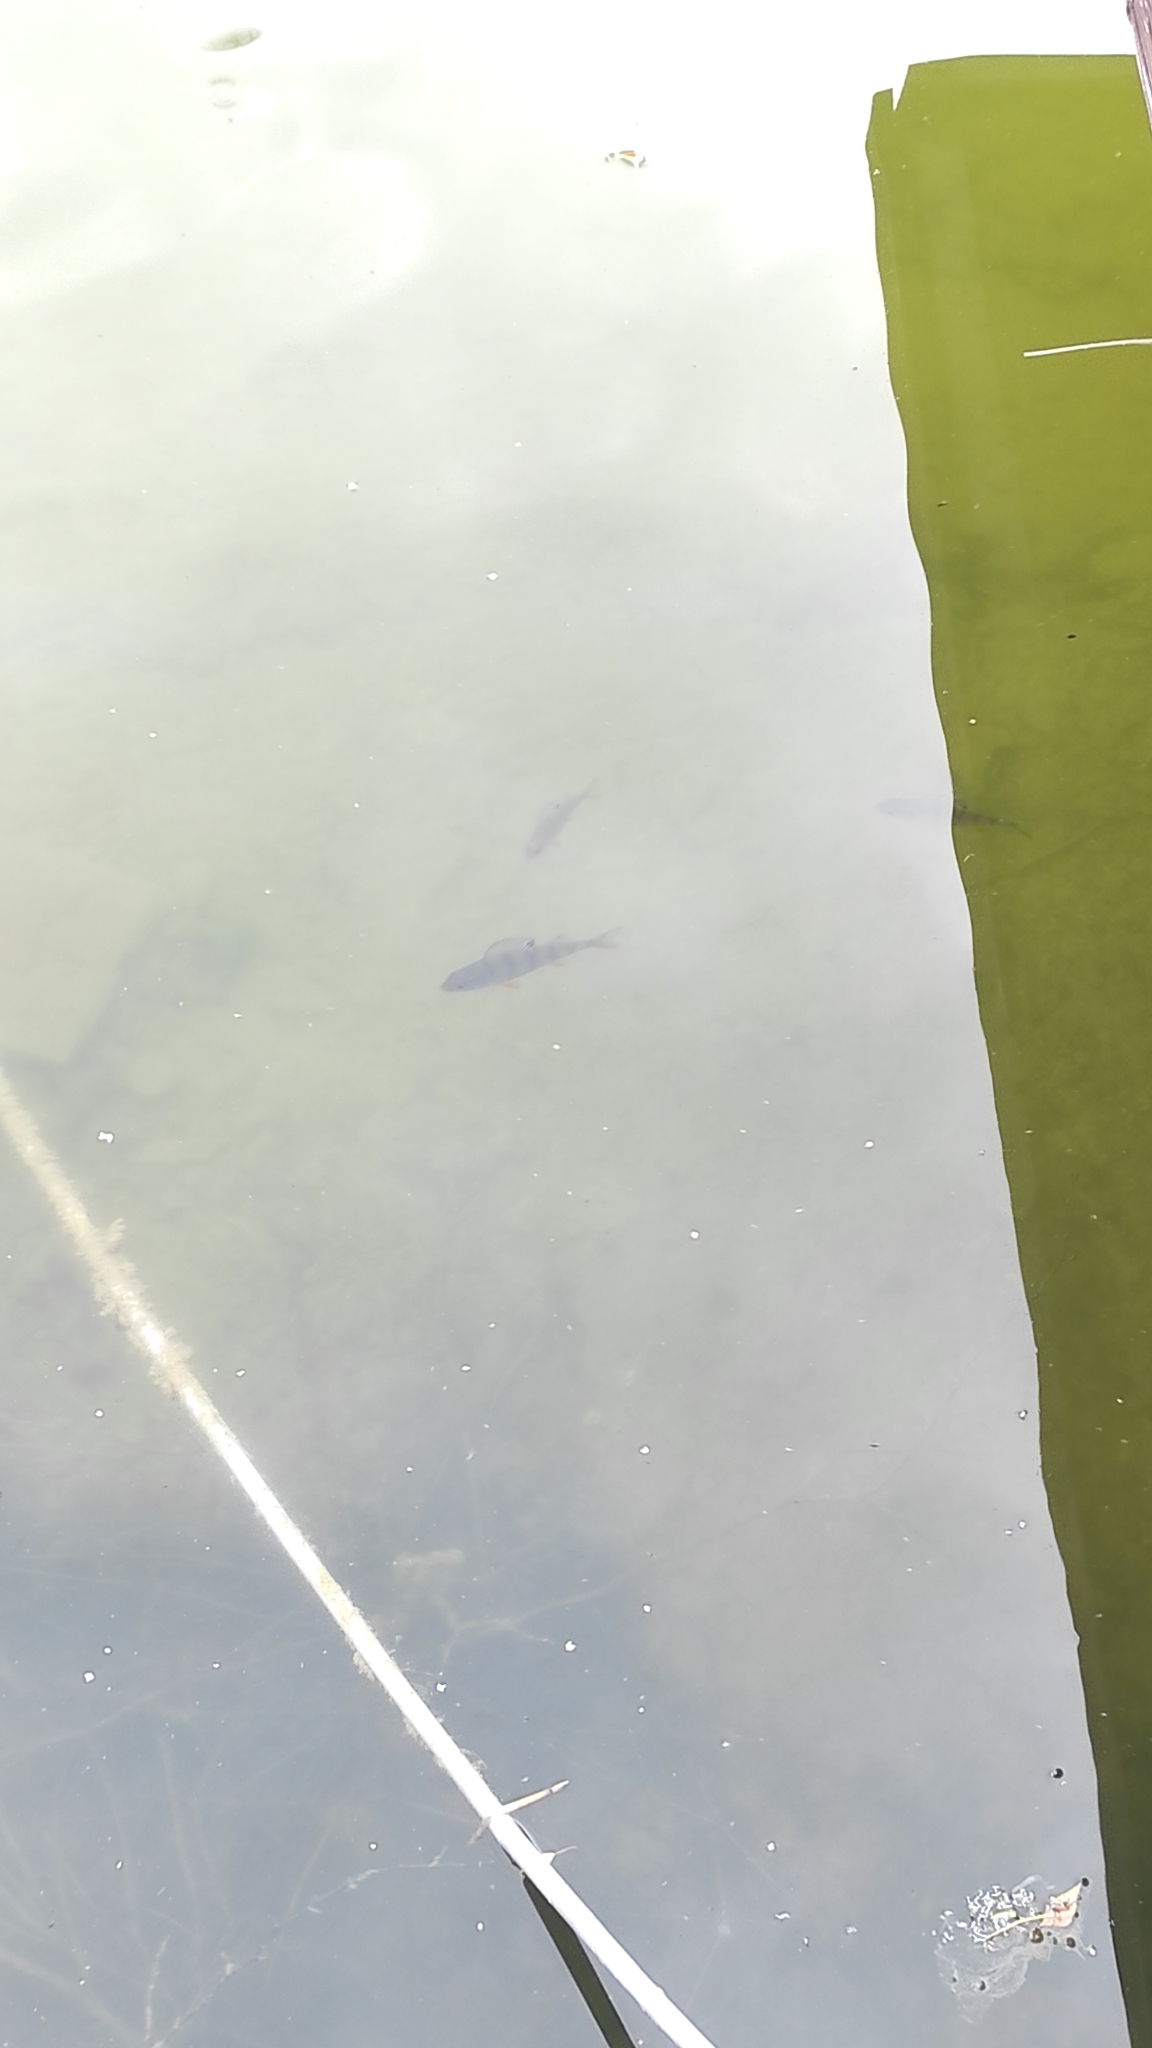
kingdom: Animalia
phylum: Chordata
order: Perciformes
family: Percidae
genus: Perca
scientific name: Perca fluviatilis
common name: Perch
